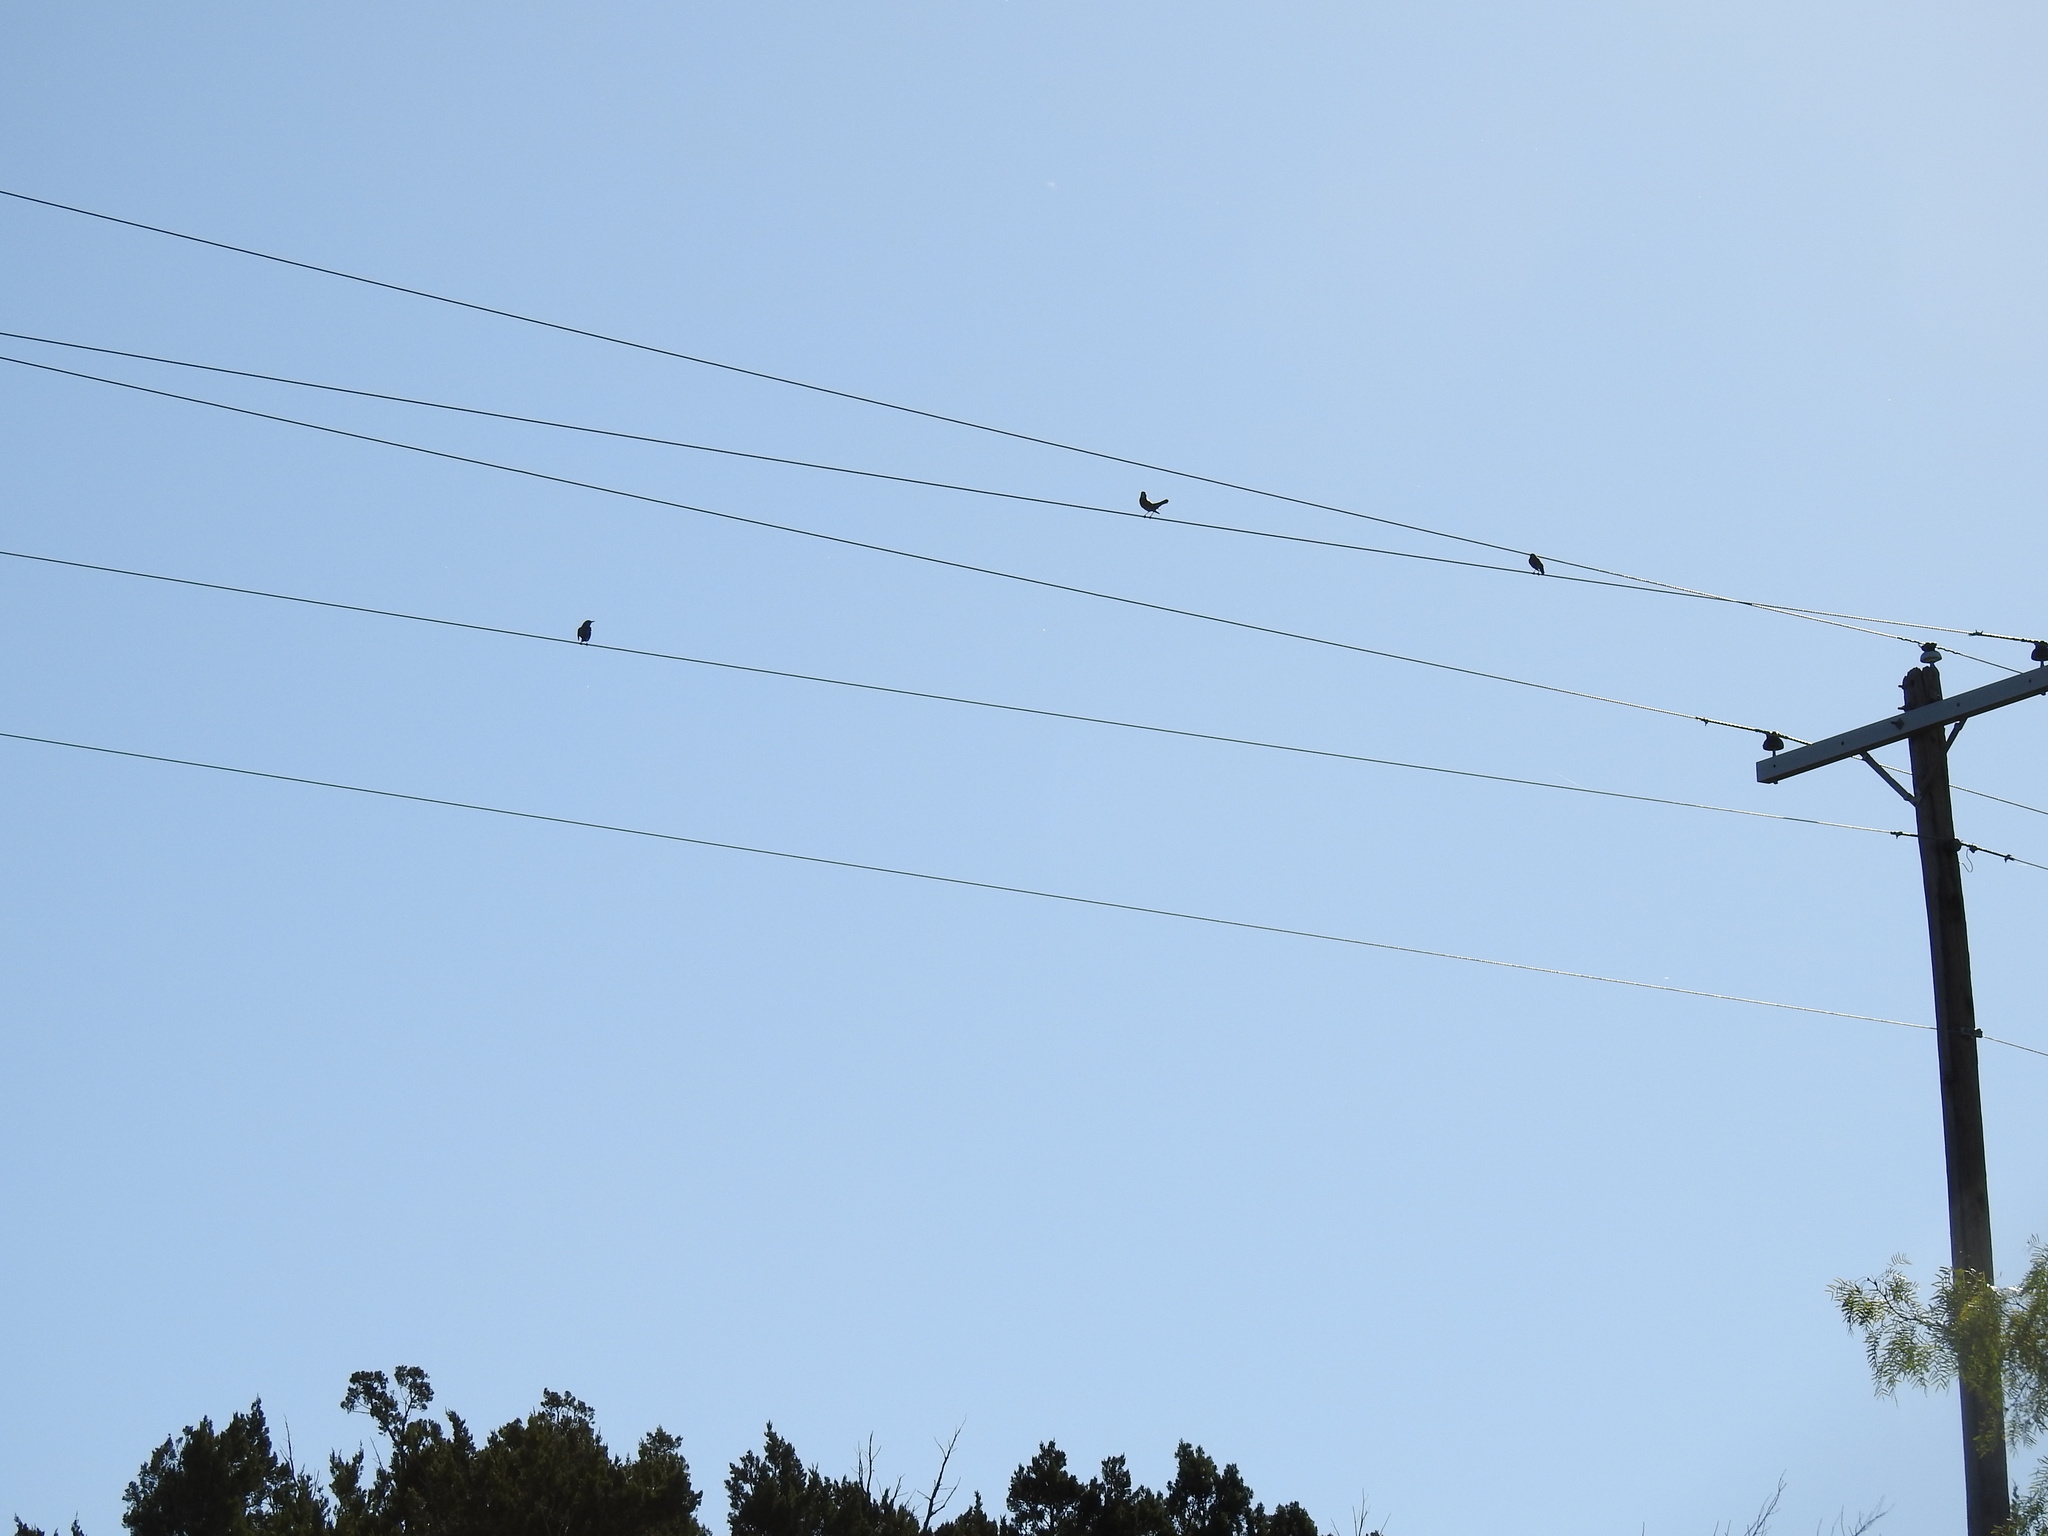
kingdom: Animalia
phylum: Chordata
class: Aves
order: Passeriformes
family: Turdidae
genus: Turdus
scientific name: Turdus migratorius
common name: American robin
